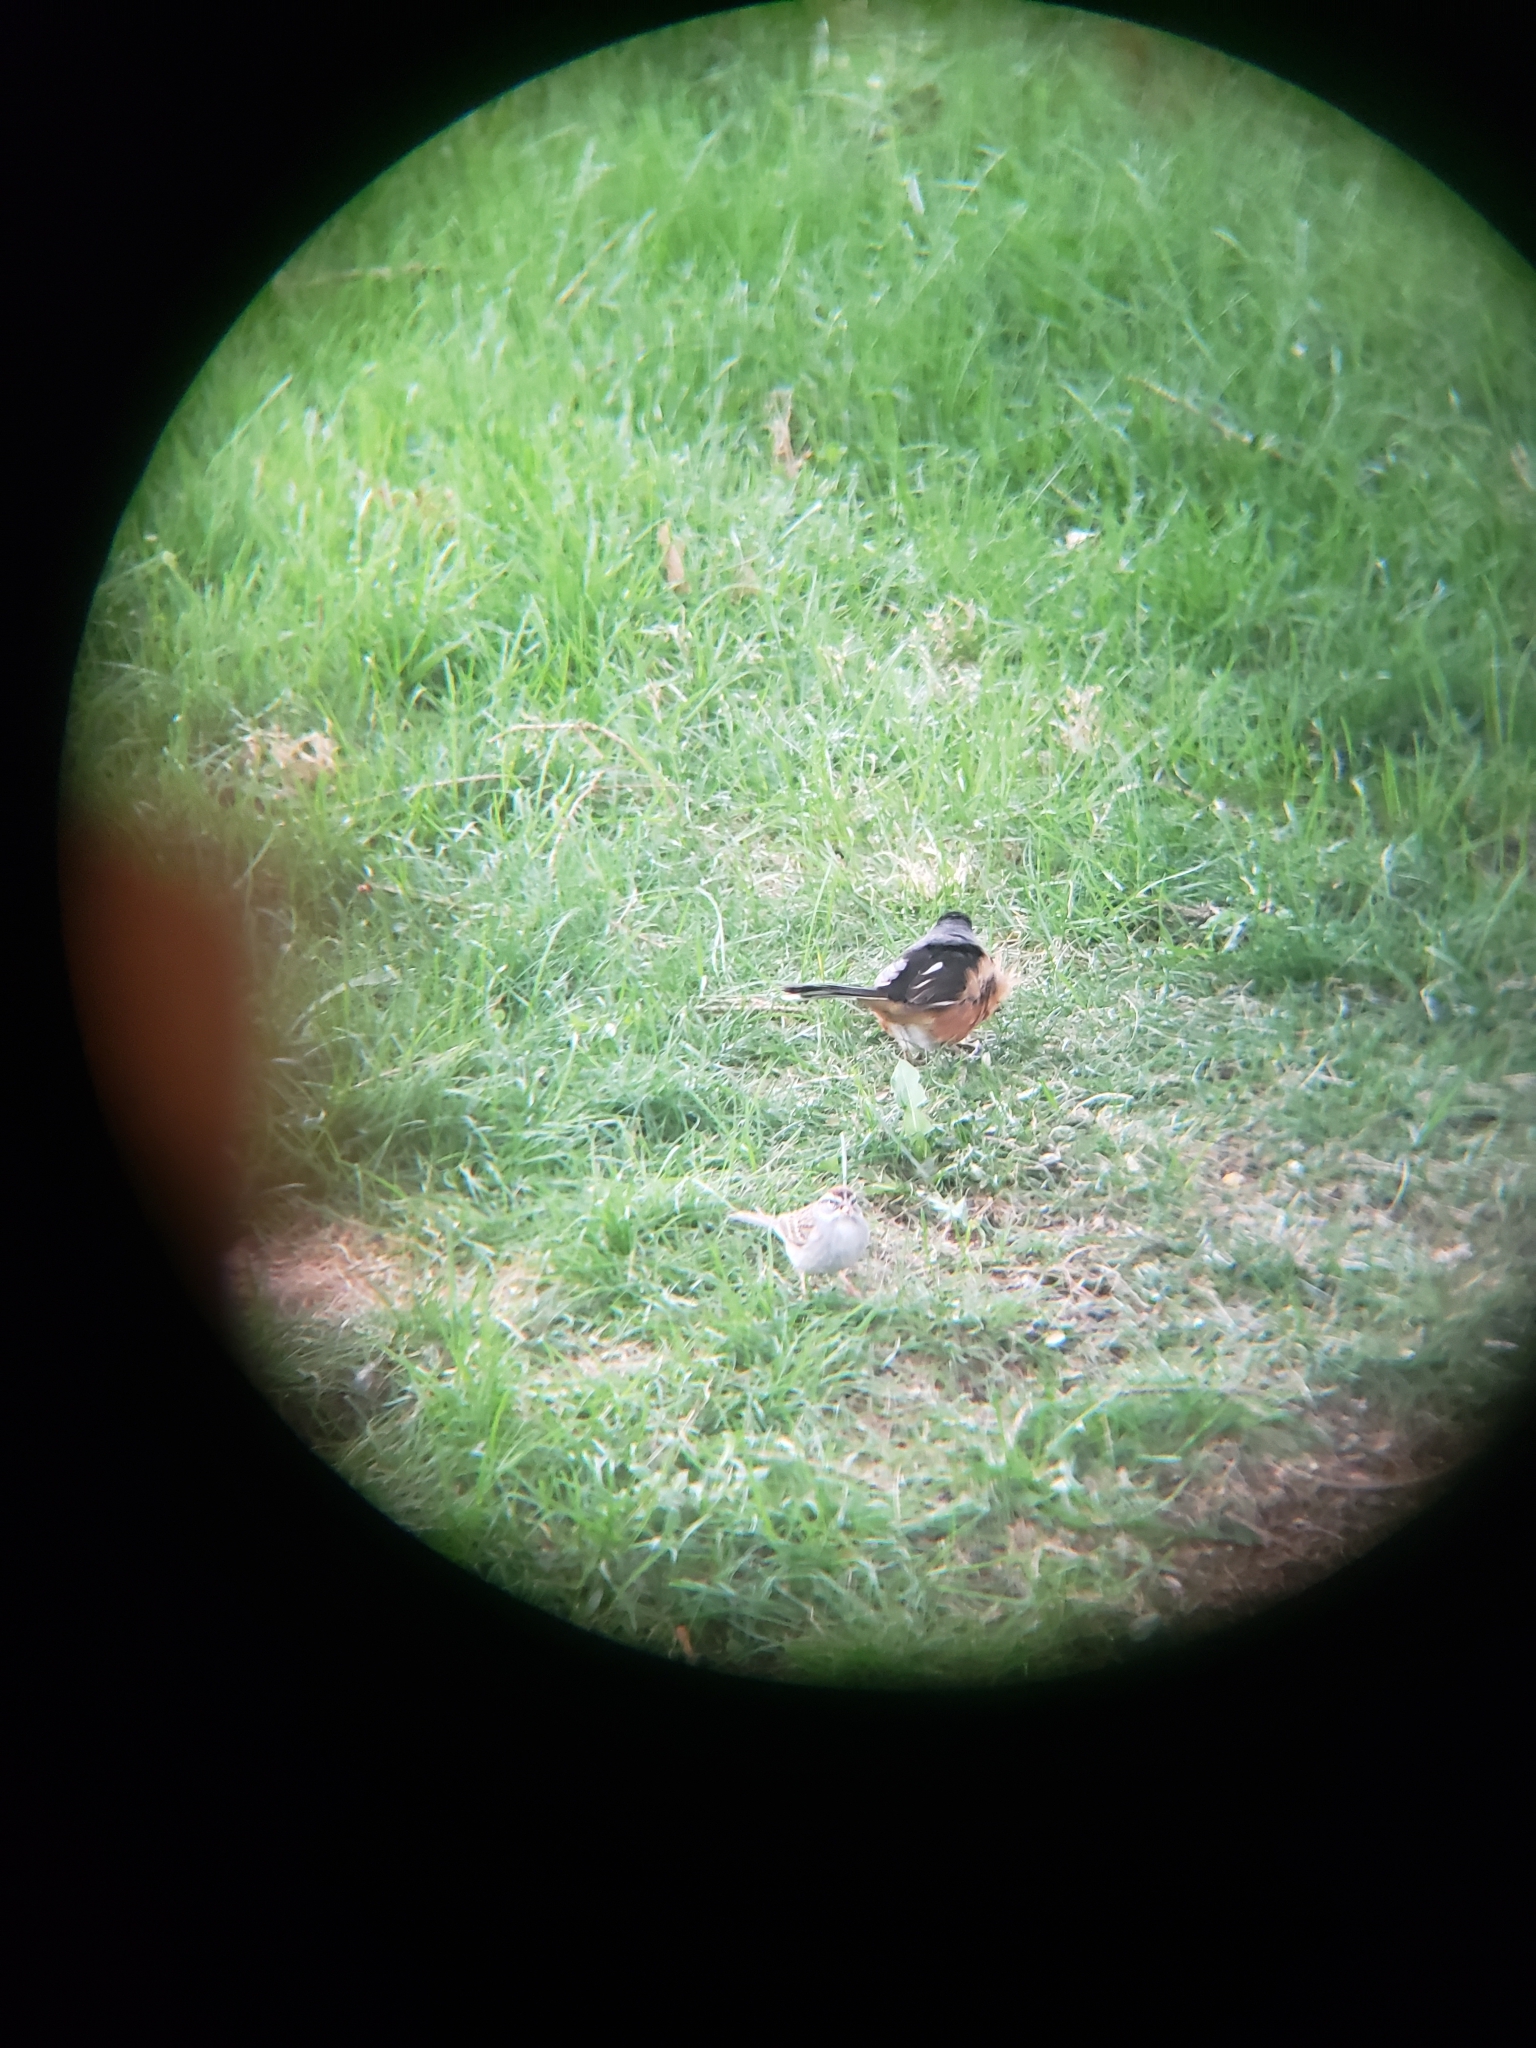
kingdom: Animalia
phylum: Chordata
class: Aves
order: Passeriformes
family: Passerellidae
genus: Spizella
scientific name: Spizella passerina
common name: Chipping sparrow
